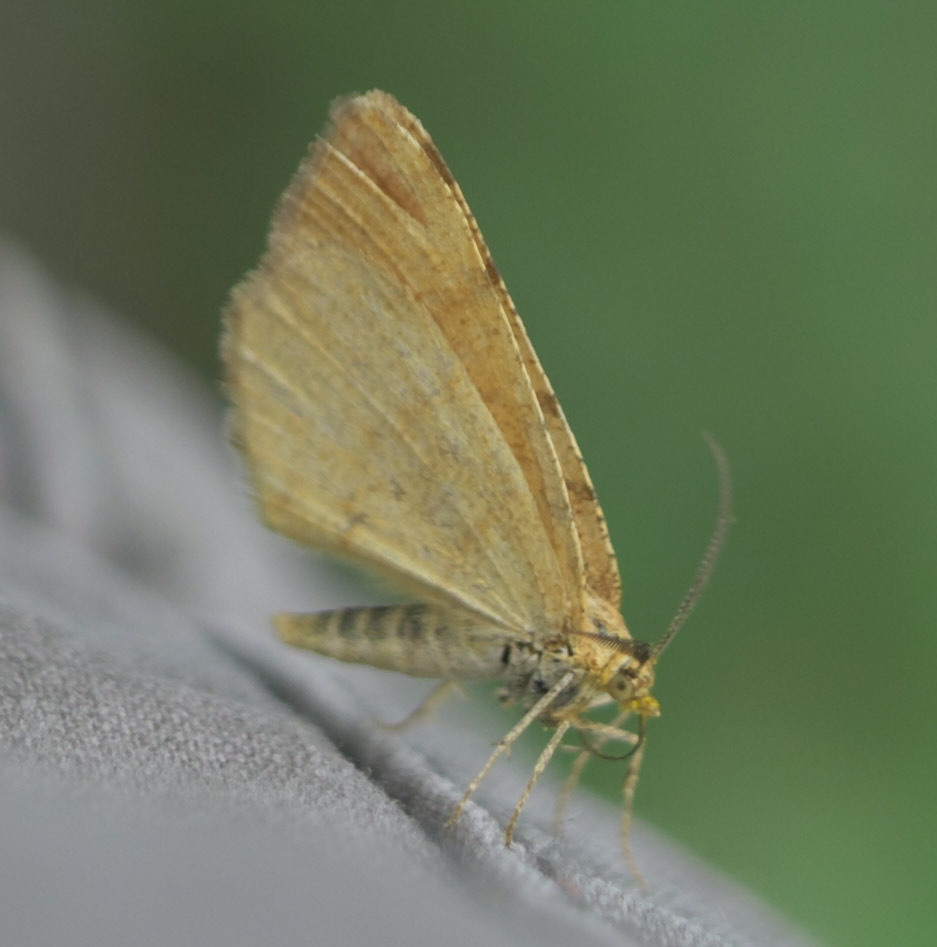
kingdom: Animalia
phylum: Arthropoda
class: Insecta
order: Lepidoptera
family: Geometridae
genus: Macaria
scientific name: Macaria brunneata
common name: Rannoch looper
